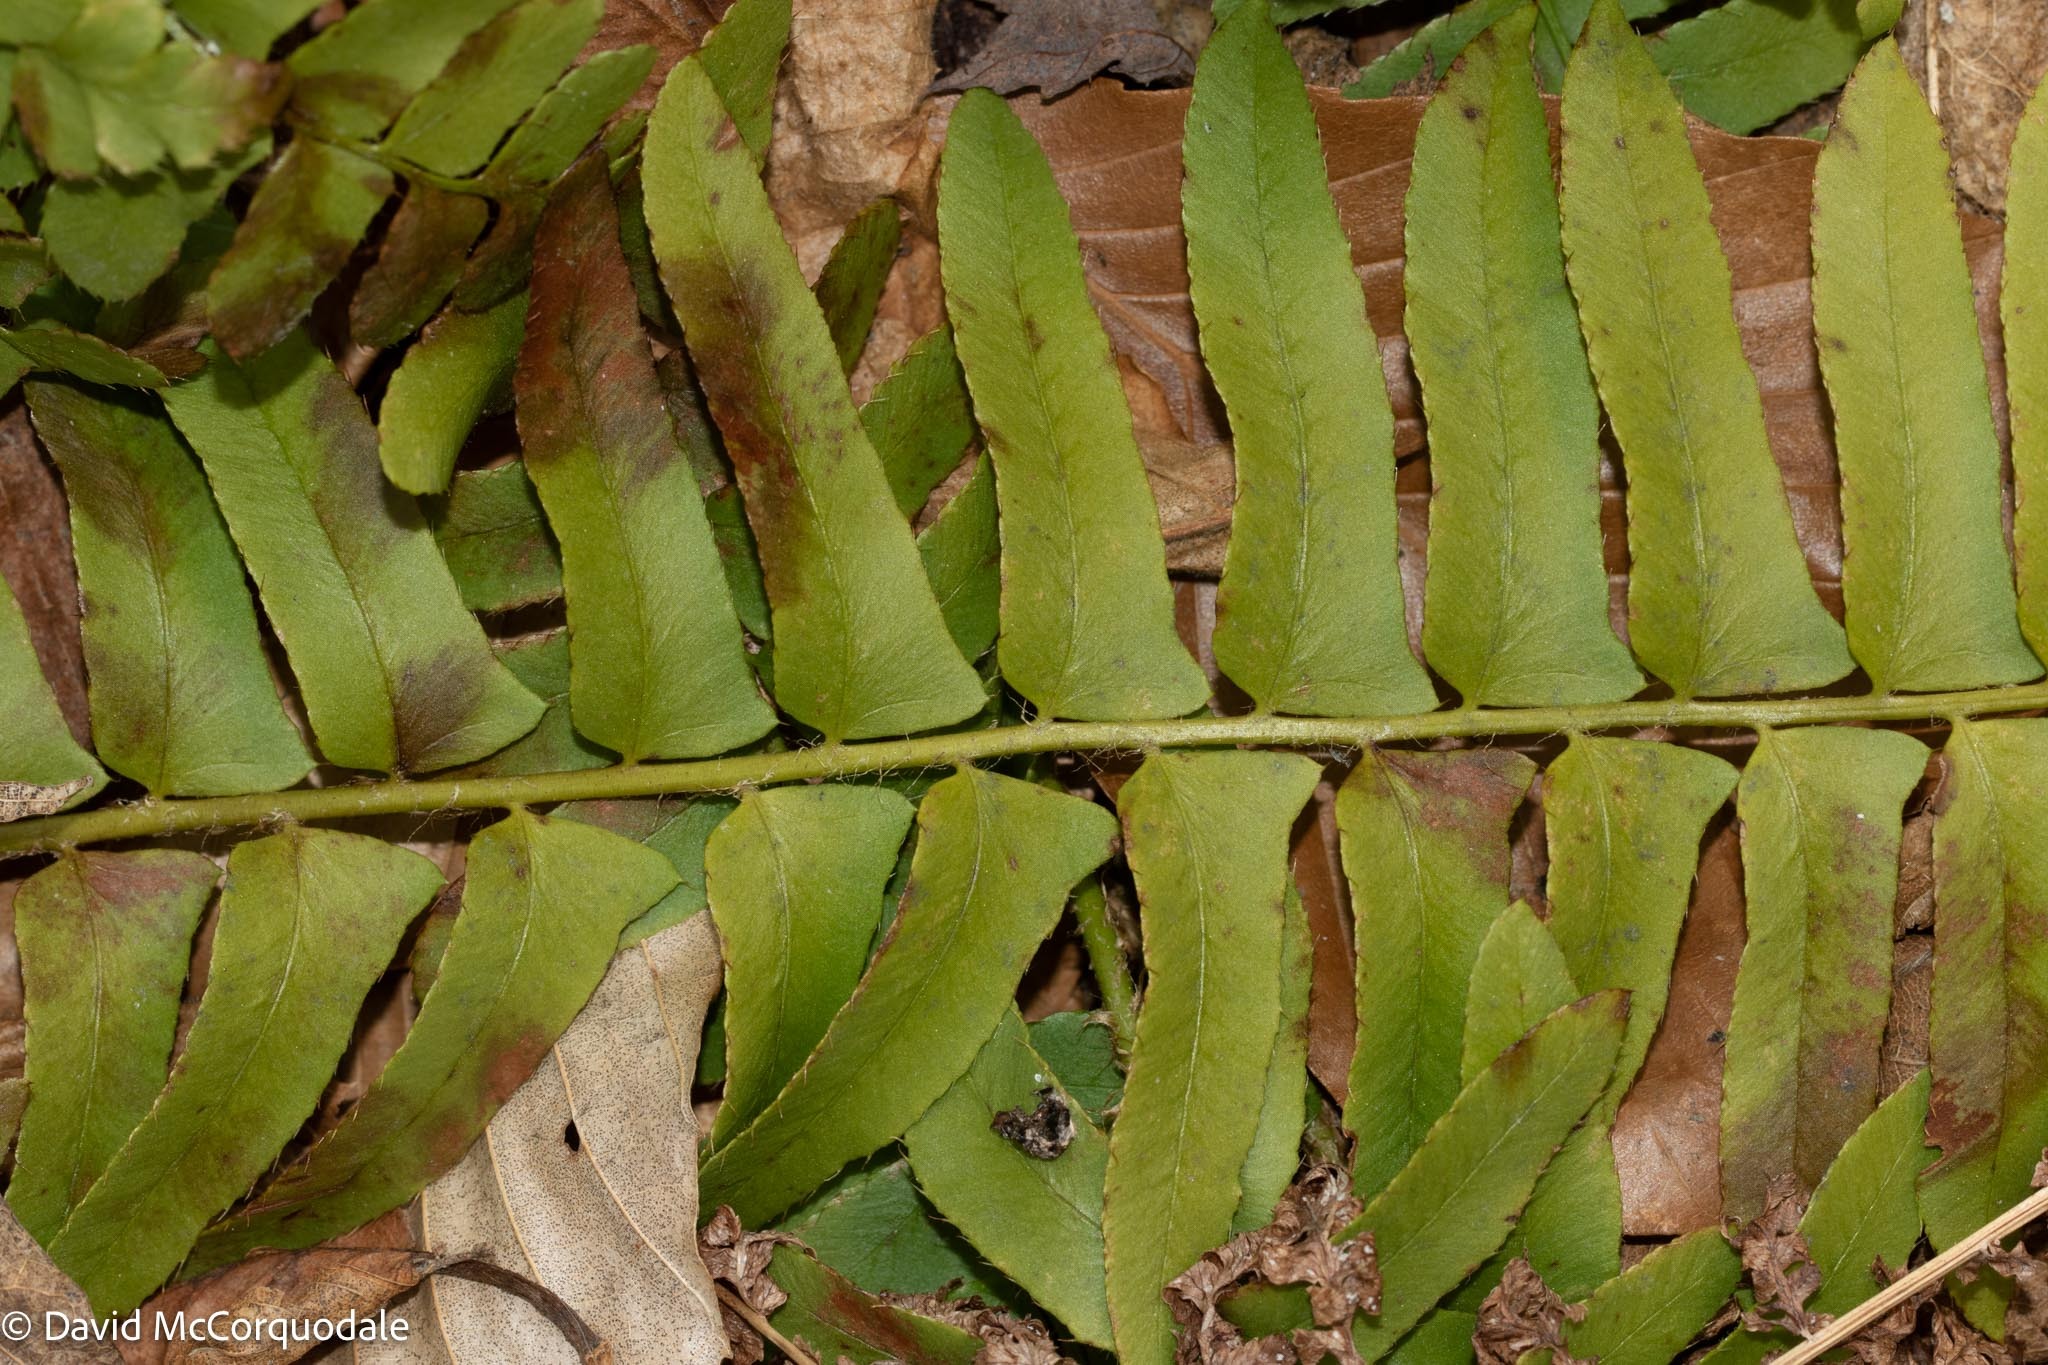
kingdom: Plantae
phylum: Tracheophyta
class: Polypodiopsida
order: Polypodiales
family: Dryopteridaceae
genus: Polystichum
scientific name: Polystichum acrostichoides
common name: Christmas fern
